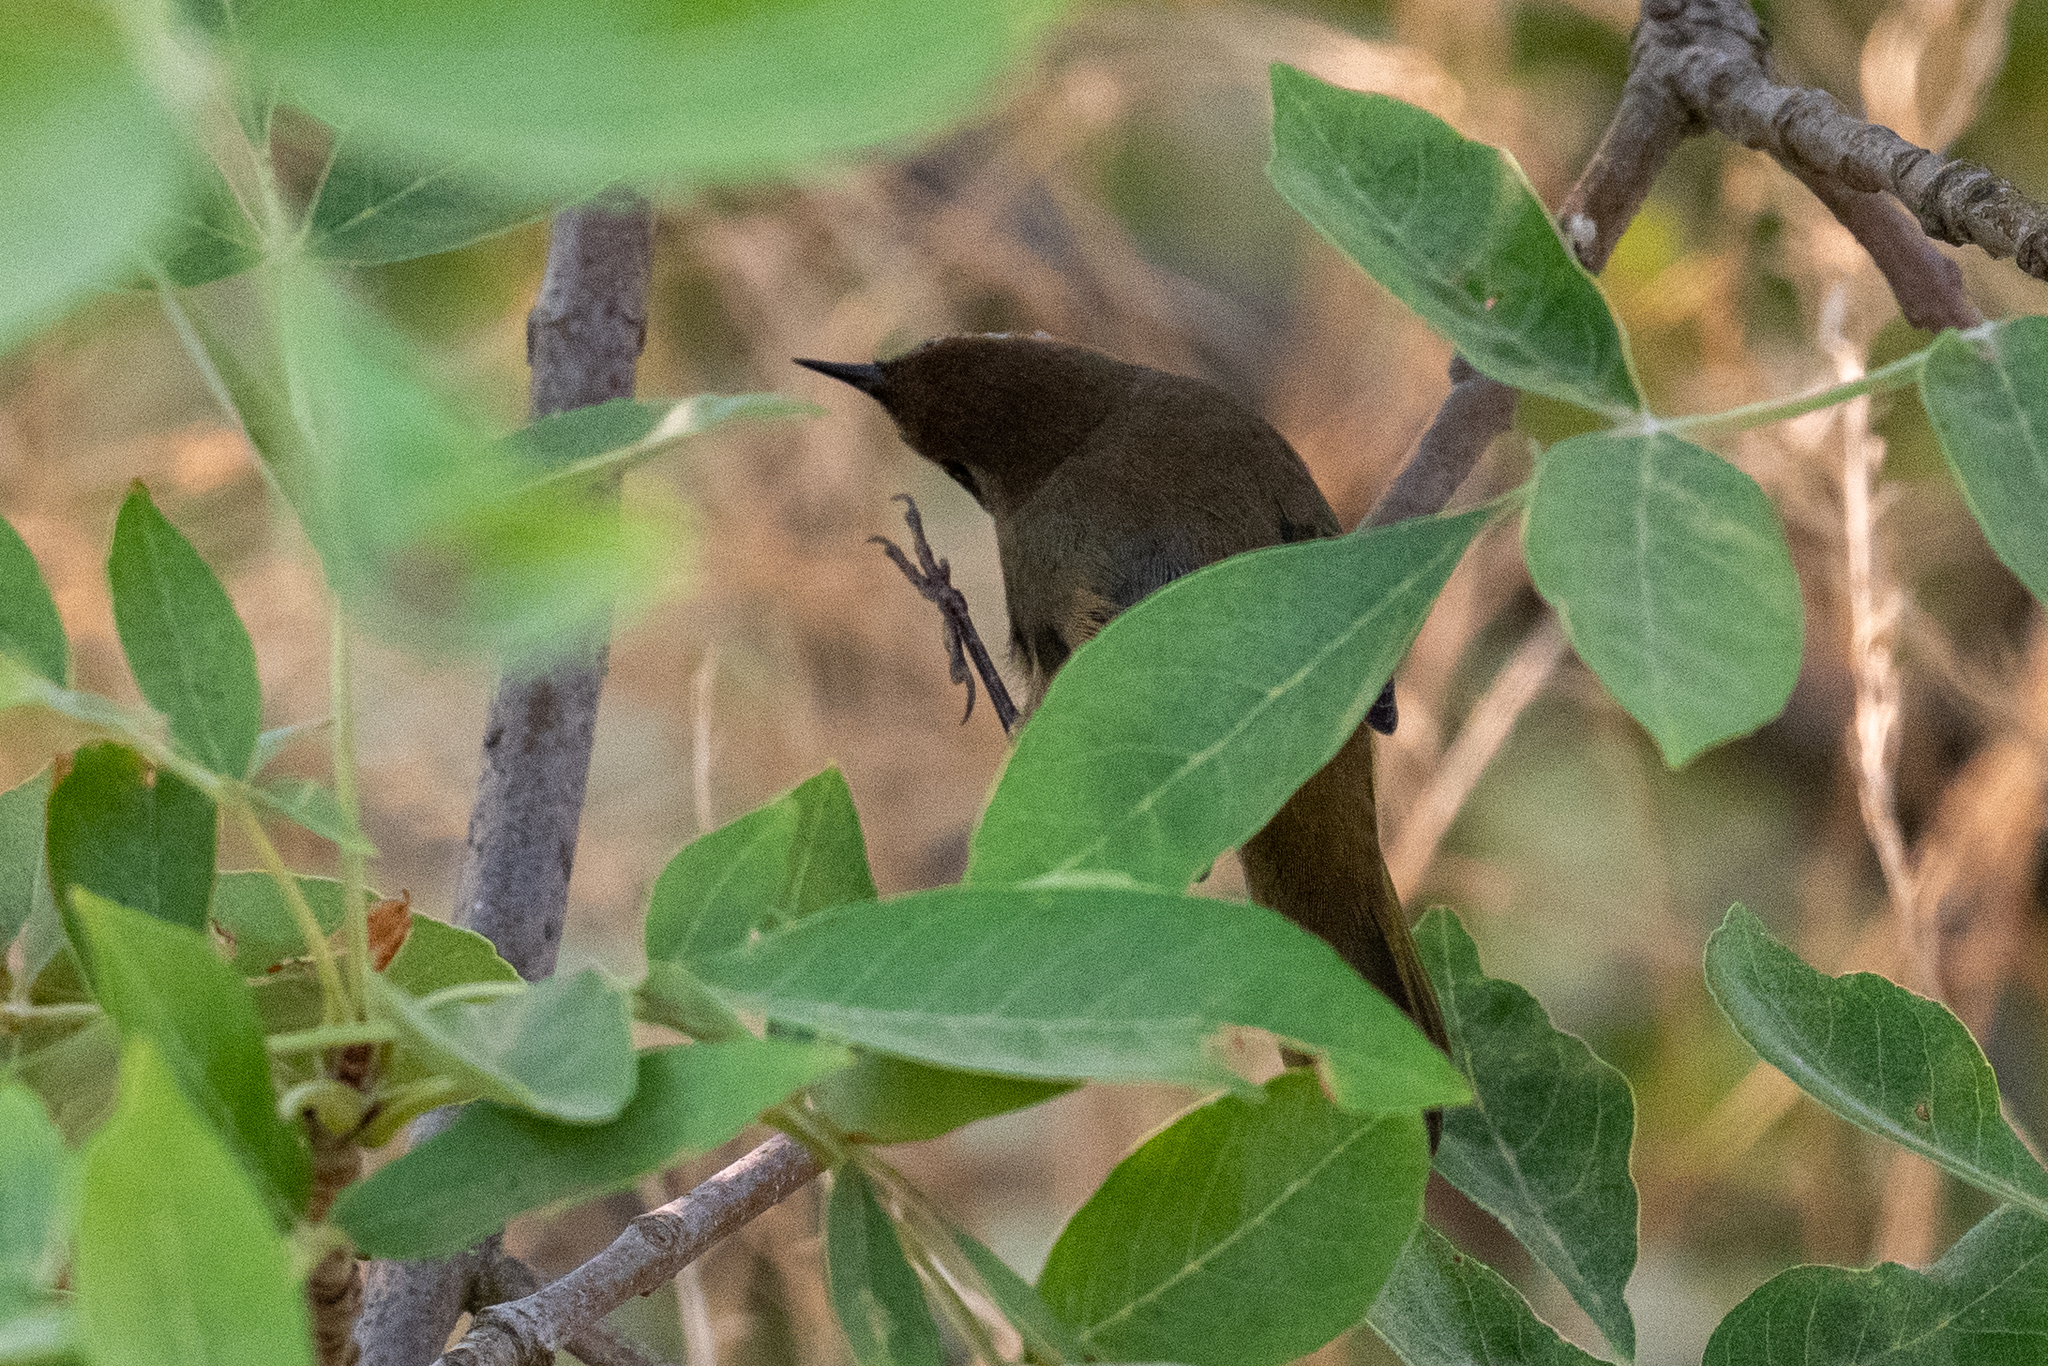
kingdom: Animalia
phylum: Chordata
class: Aves
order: Passeriformes
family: Parulidae
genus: Geothlypis
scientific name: Geothlypis trichas
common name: Common yellowthroat
